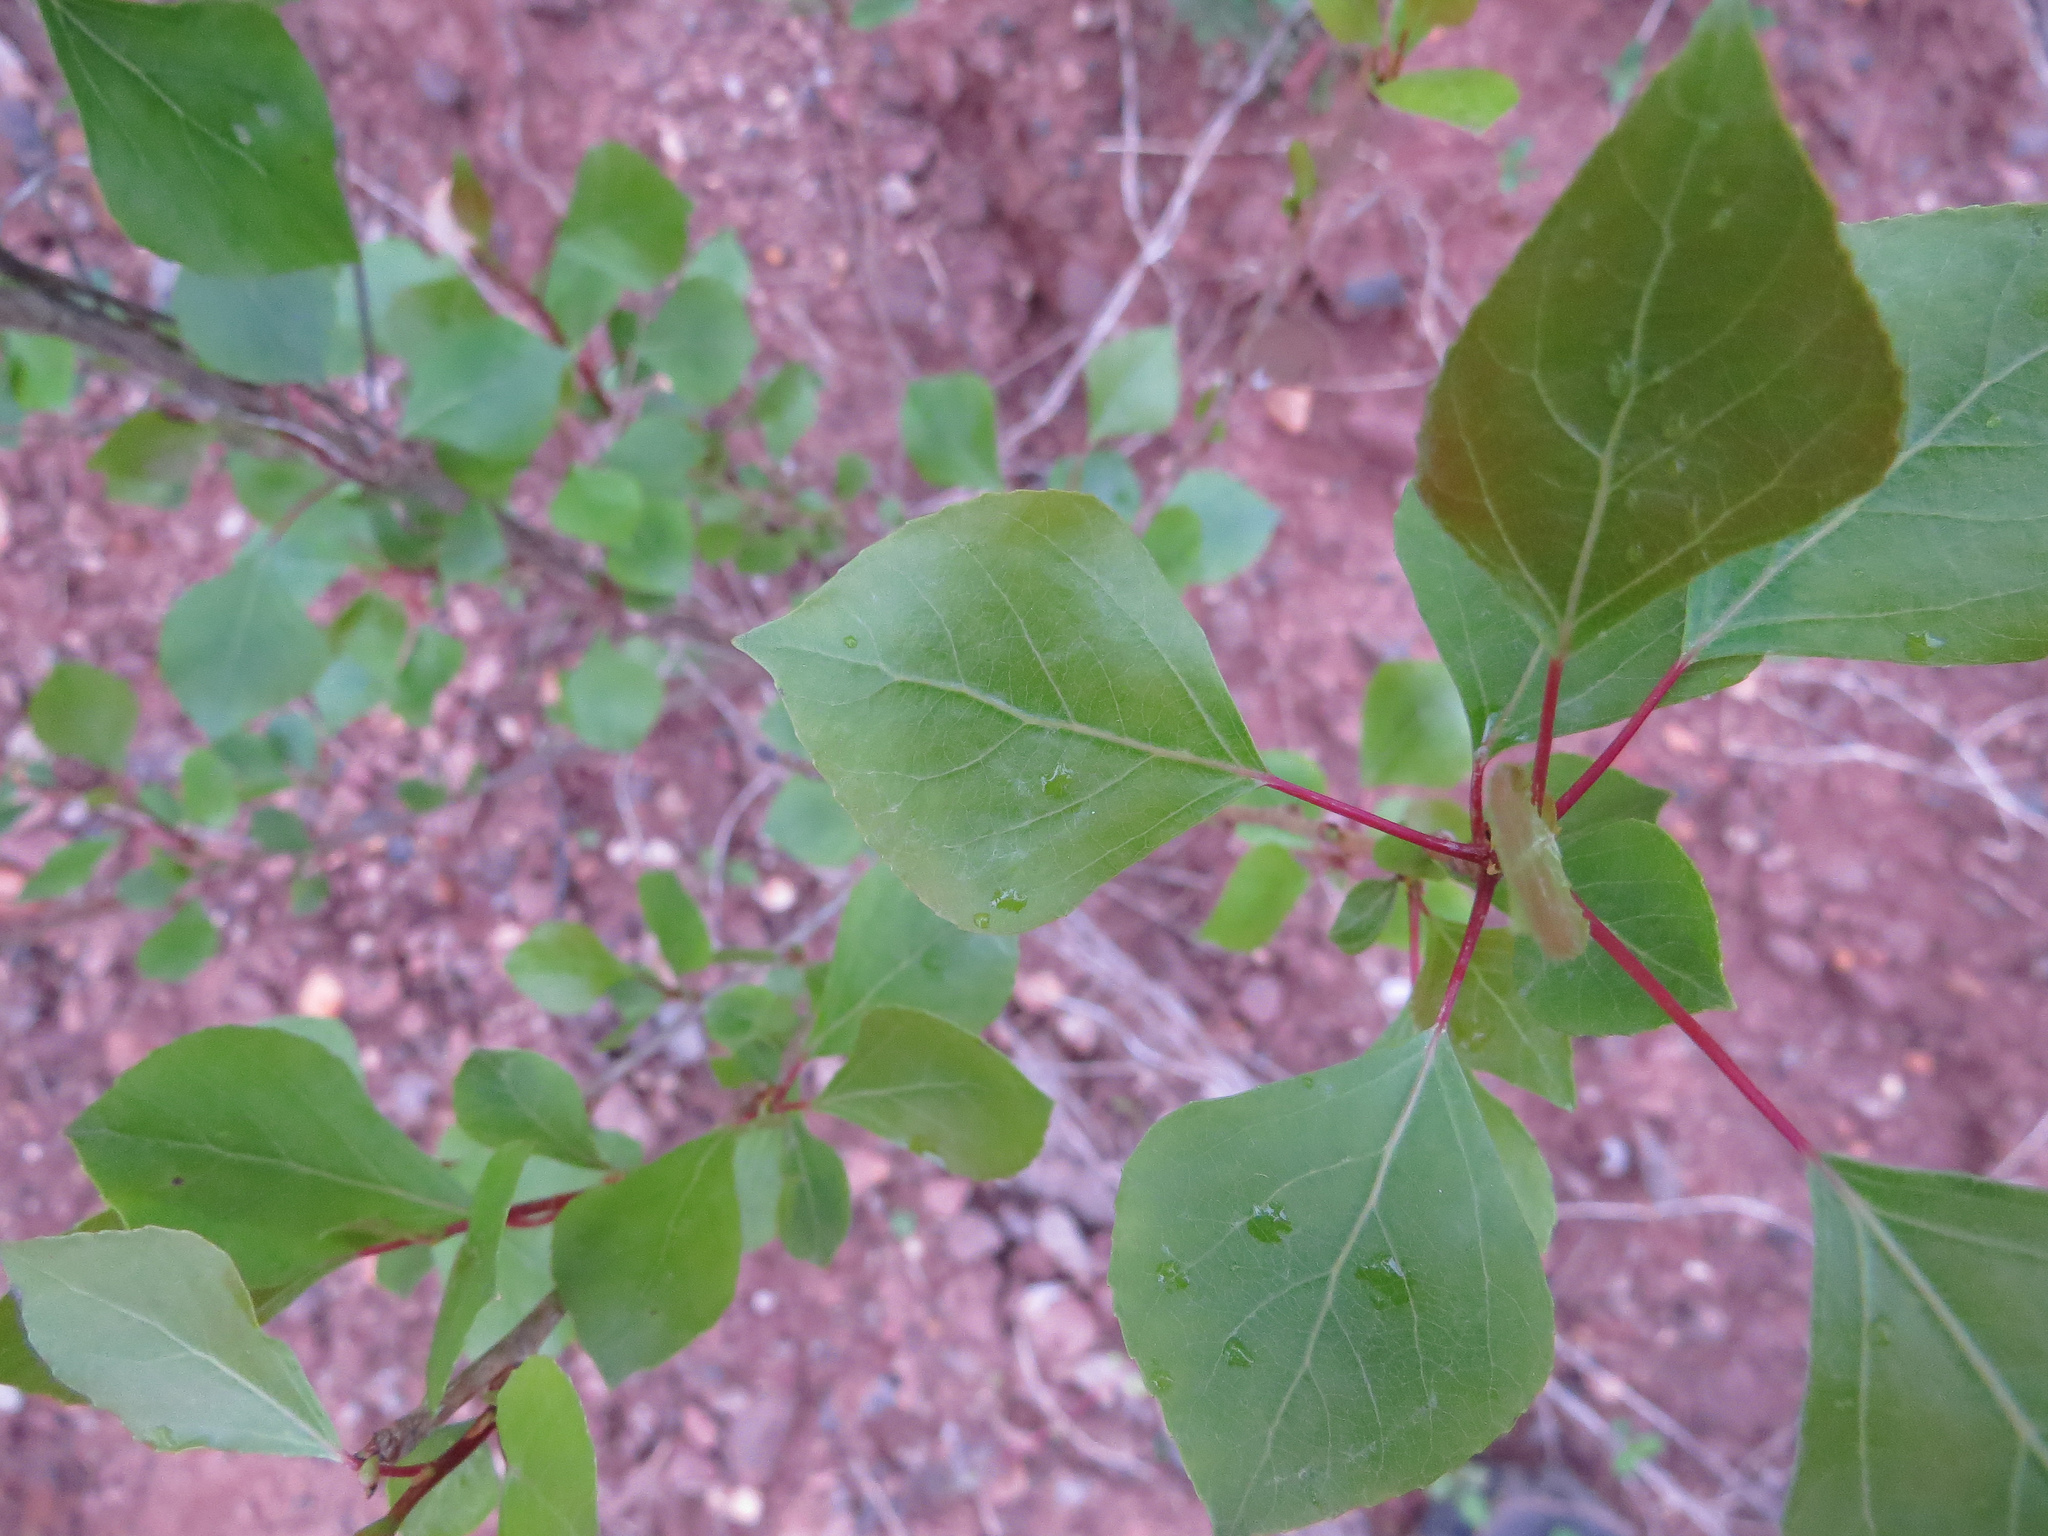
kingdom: Plantae
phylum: Tracheophyta
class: Magnoliopsida
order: Malpighiales
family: Salicaceae
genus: Populus
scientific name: Populus tremuloides
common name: Quaking aspen
